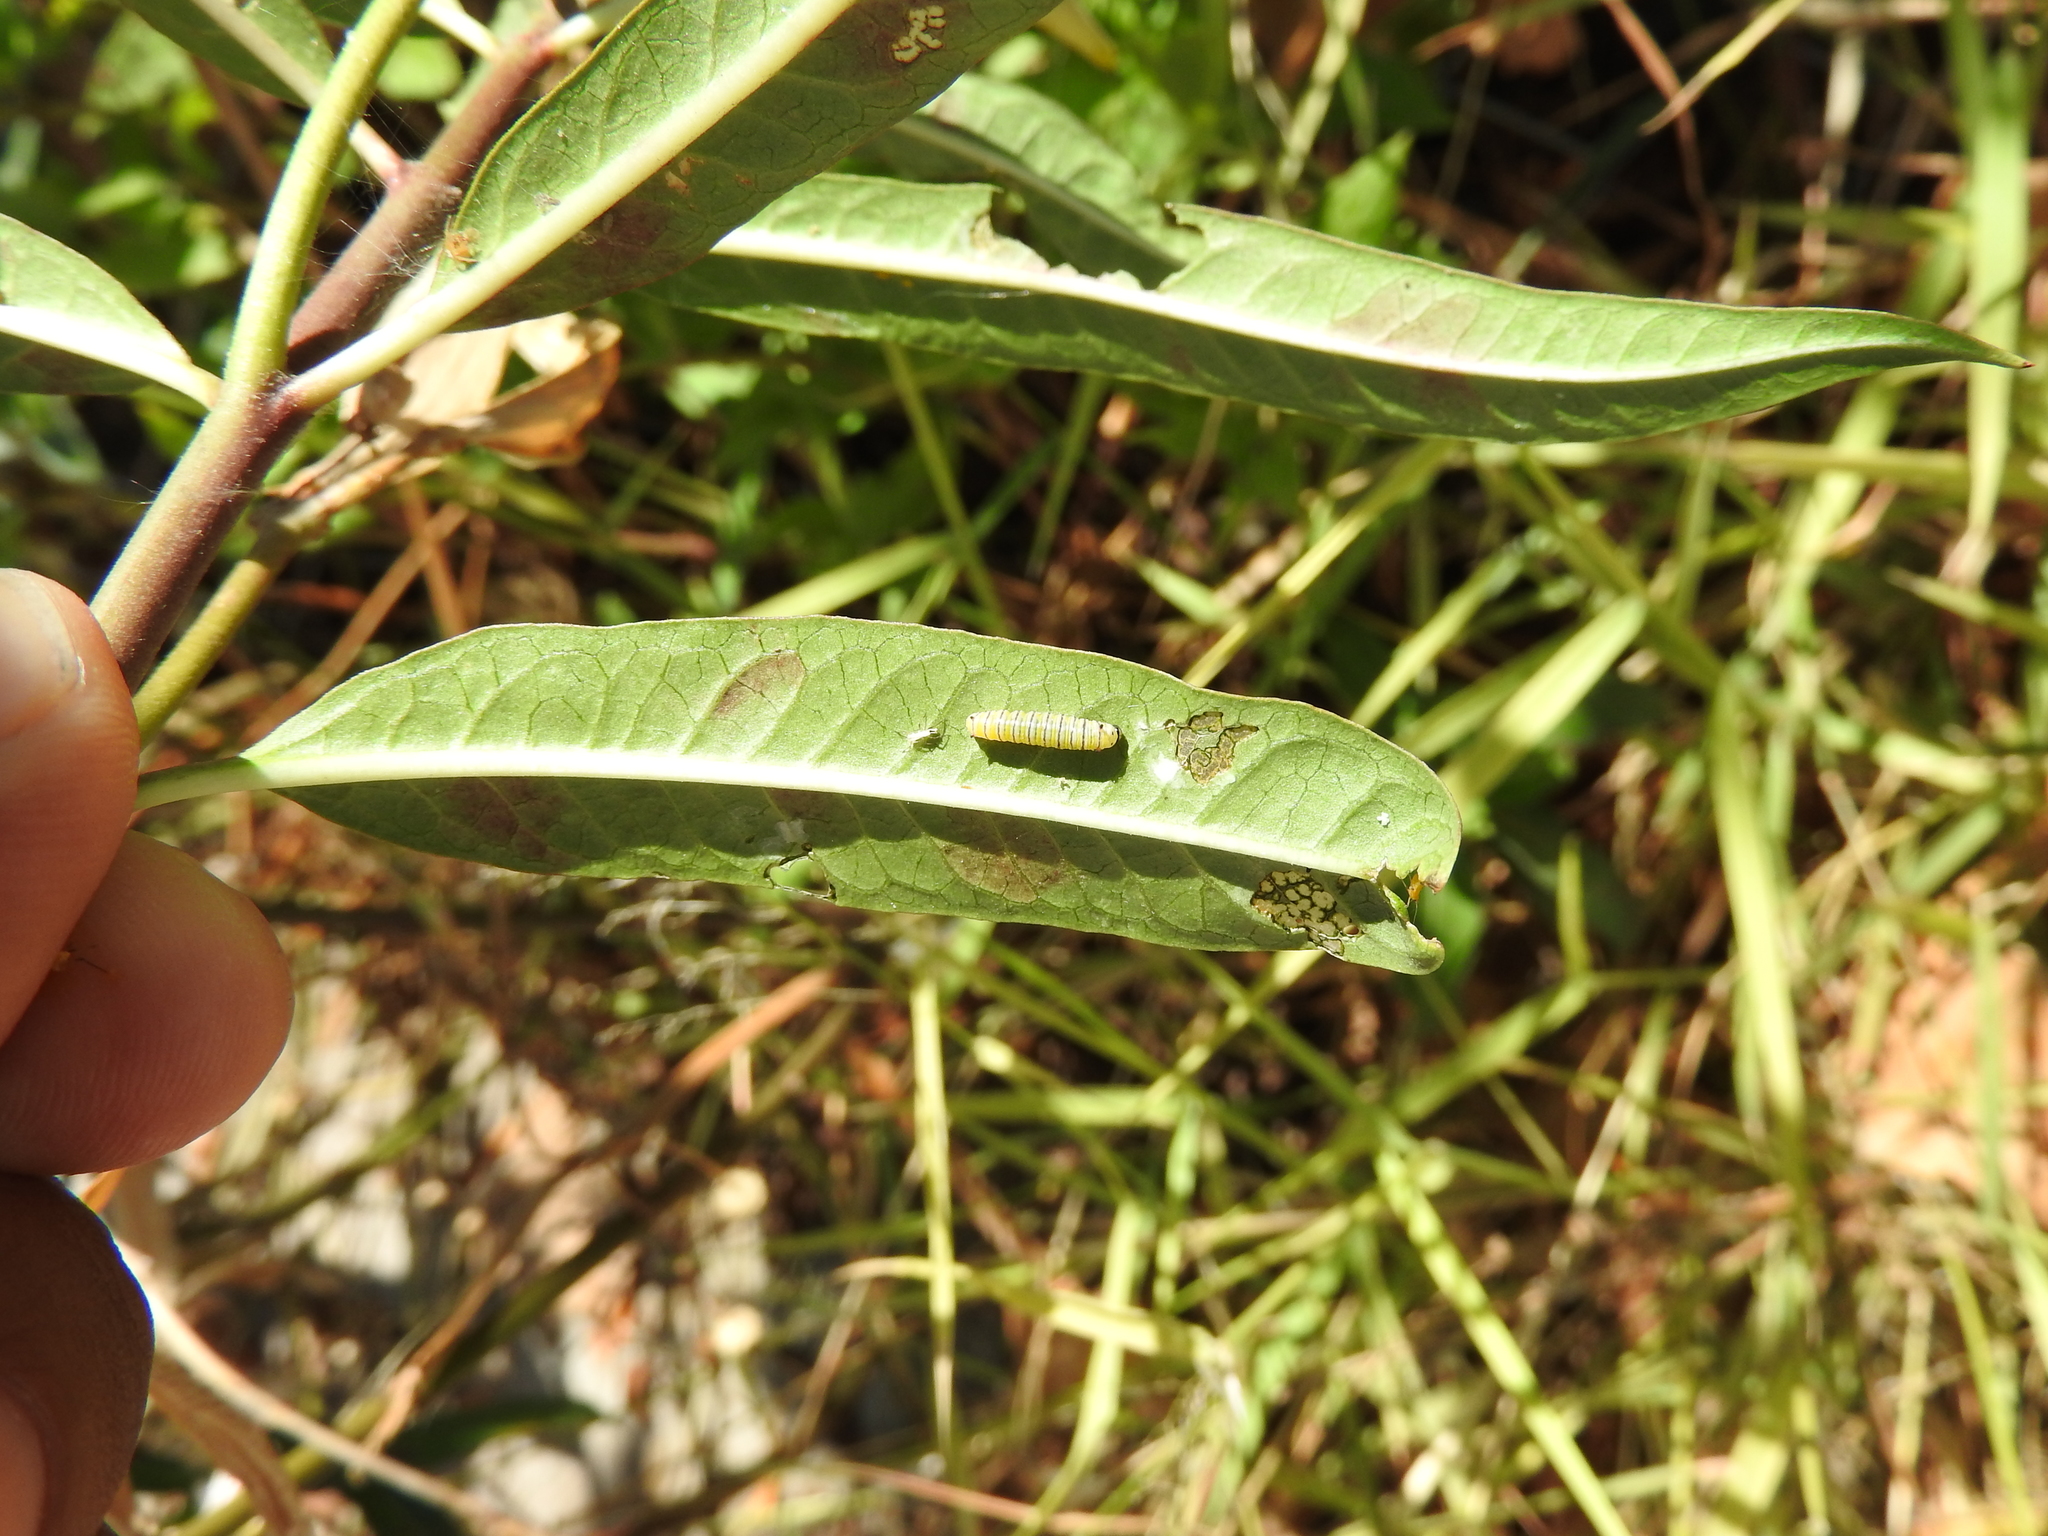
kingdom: Animalia
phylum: Arthropoda
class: Insecta
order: Lepidoptera
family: Nymphalidae
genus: Danaus
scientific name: Danaus plexippus
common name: Monarch
